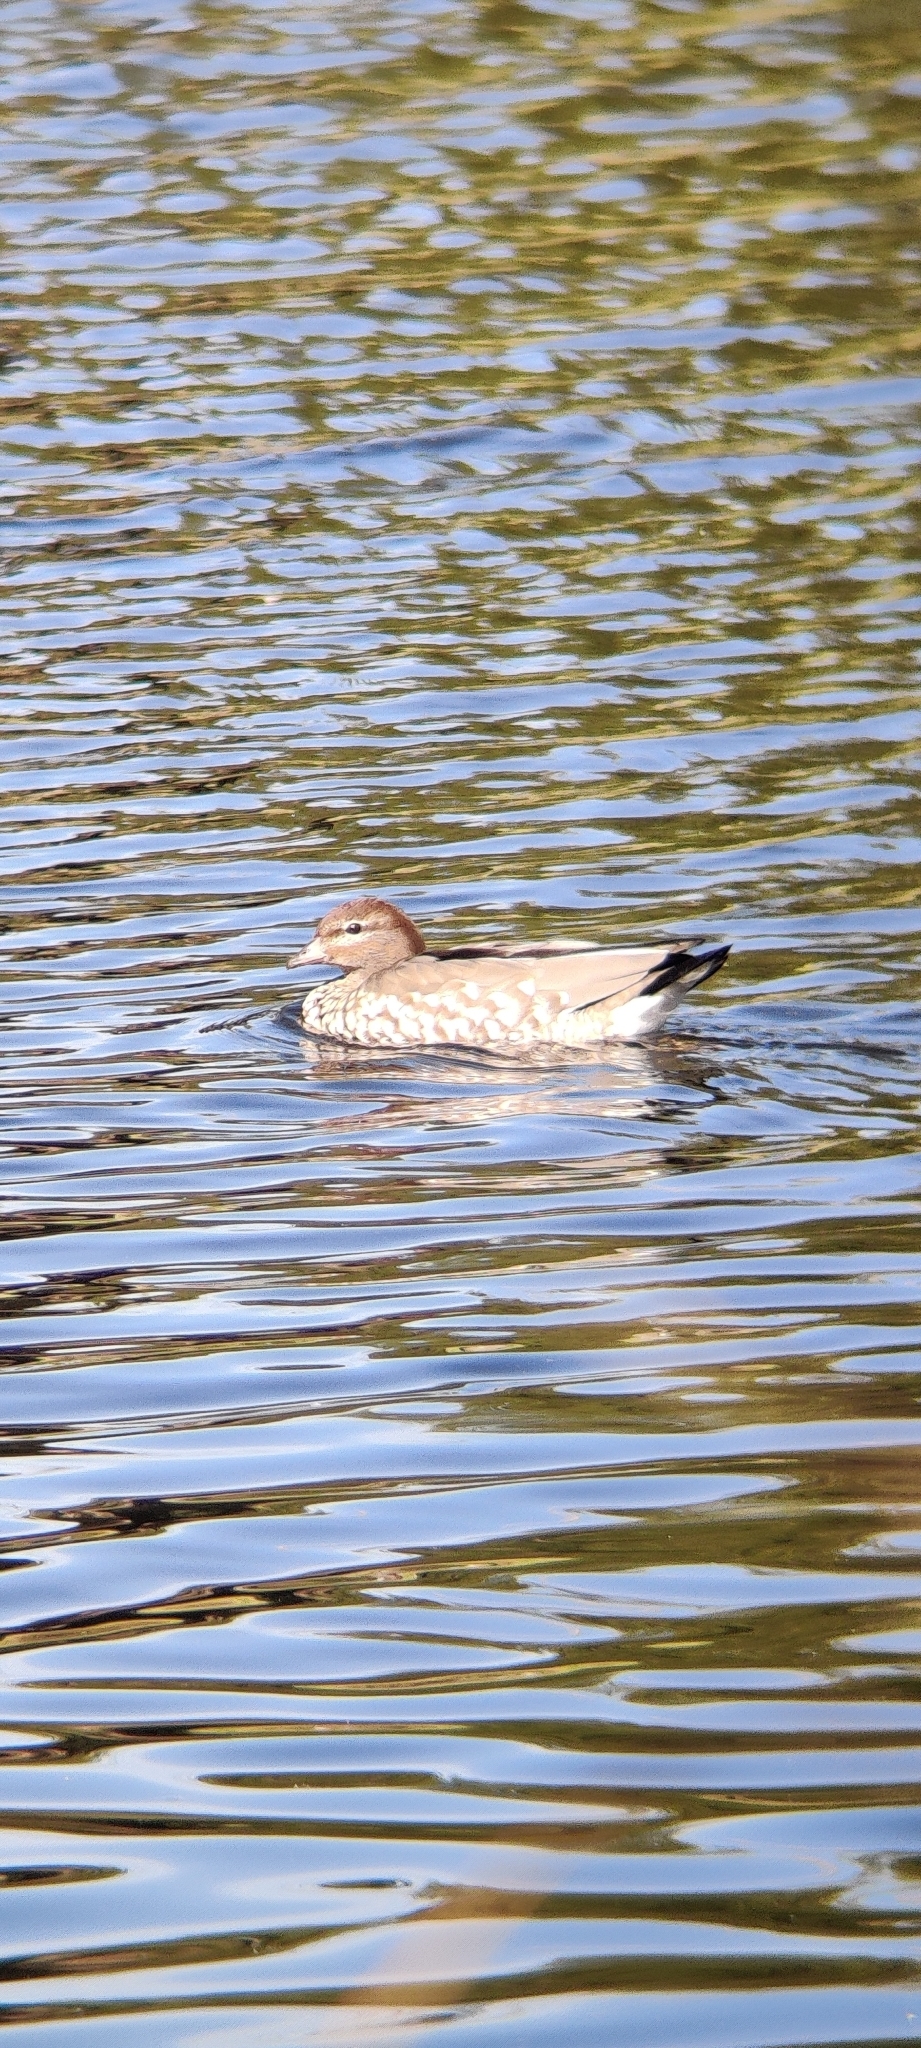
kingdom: Animalia
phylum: Chordata
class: Aves
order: Anseriformes
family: Anatidae
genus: Chenonetta
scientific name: Chenonetta jubata
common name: Maned duck
